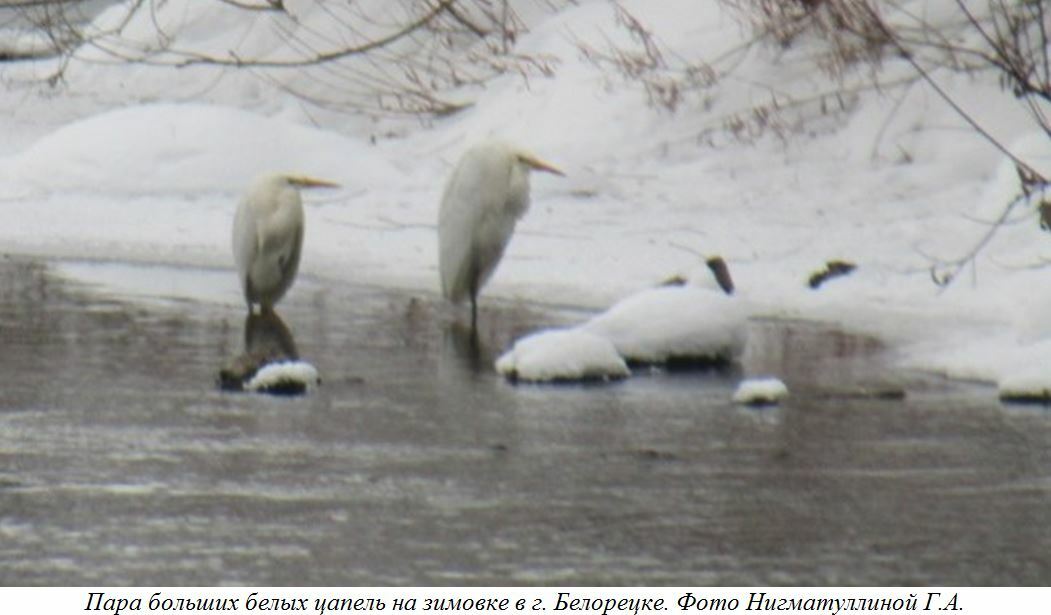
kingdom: Animalia
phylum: Chordata
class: Aves
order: Pelecaniformes
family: Ardeidae
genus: Ardea
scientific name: Ardea alba
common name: Great egret
